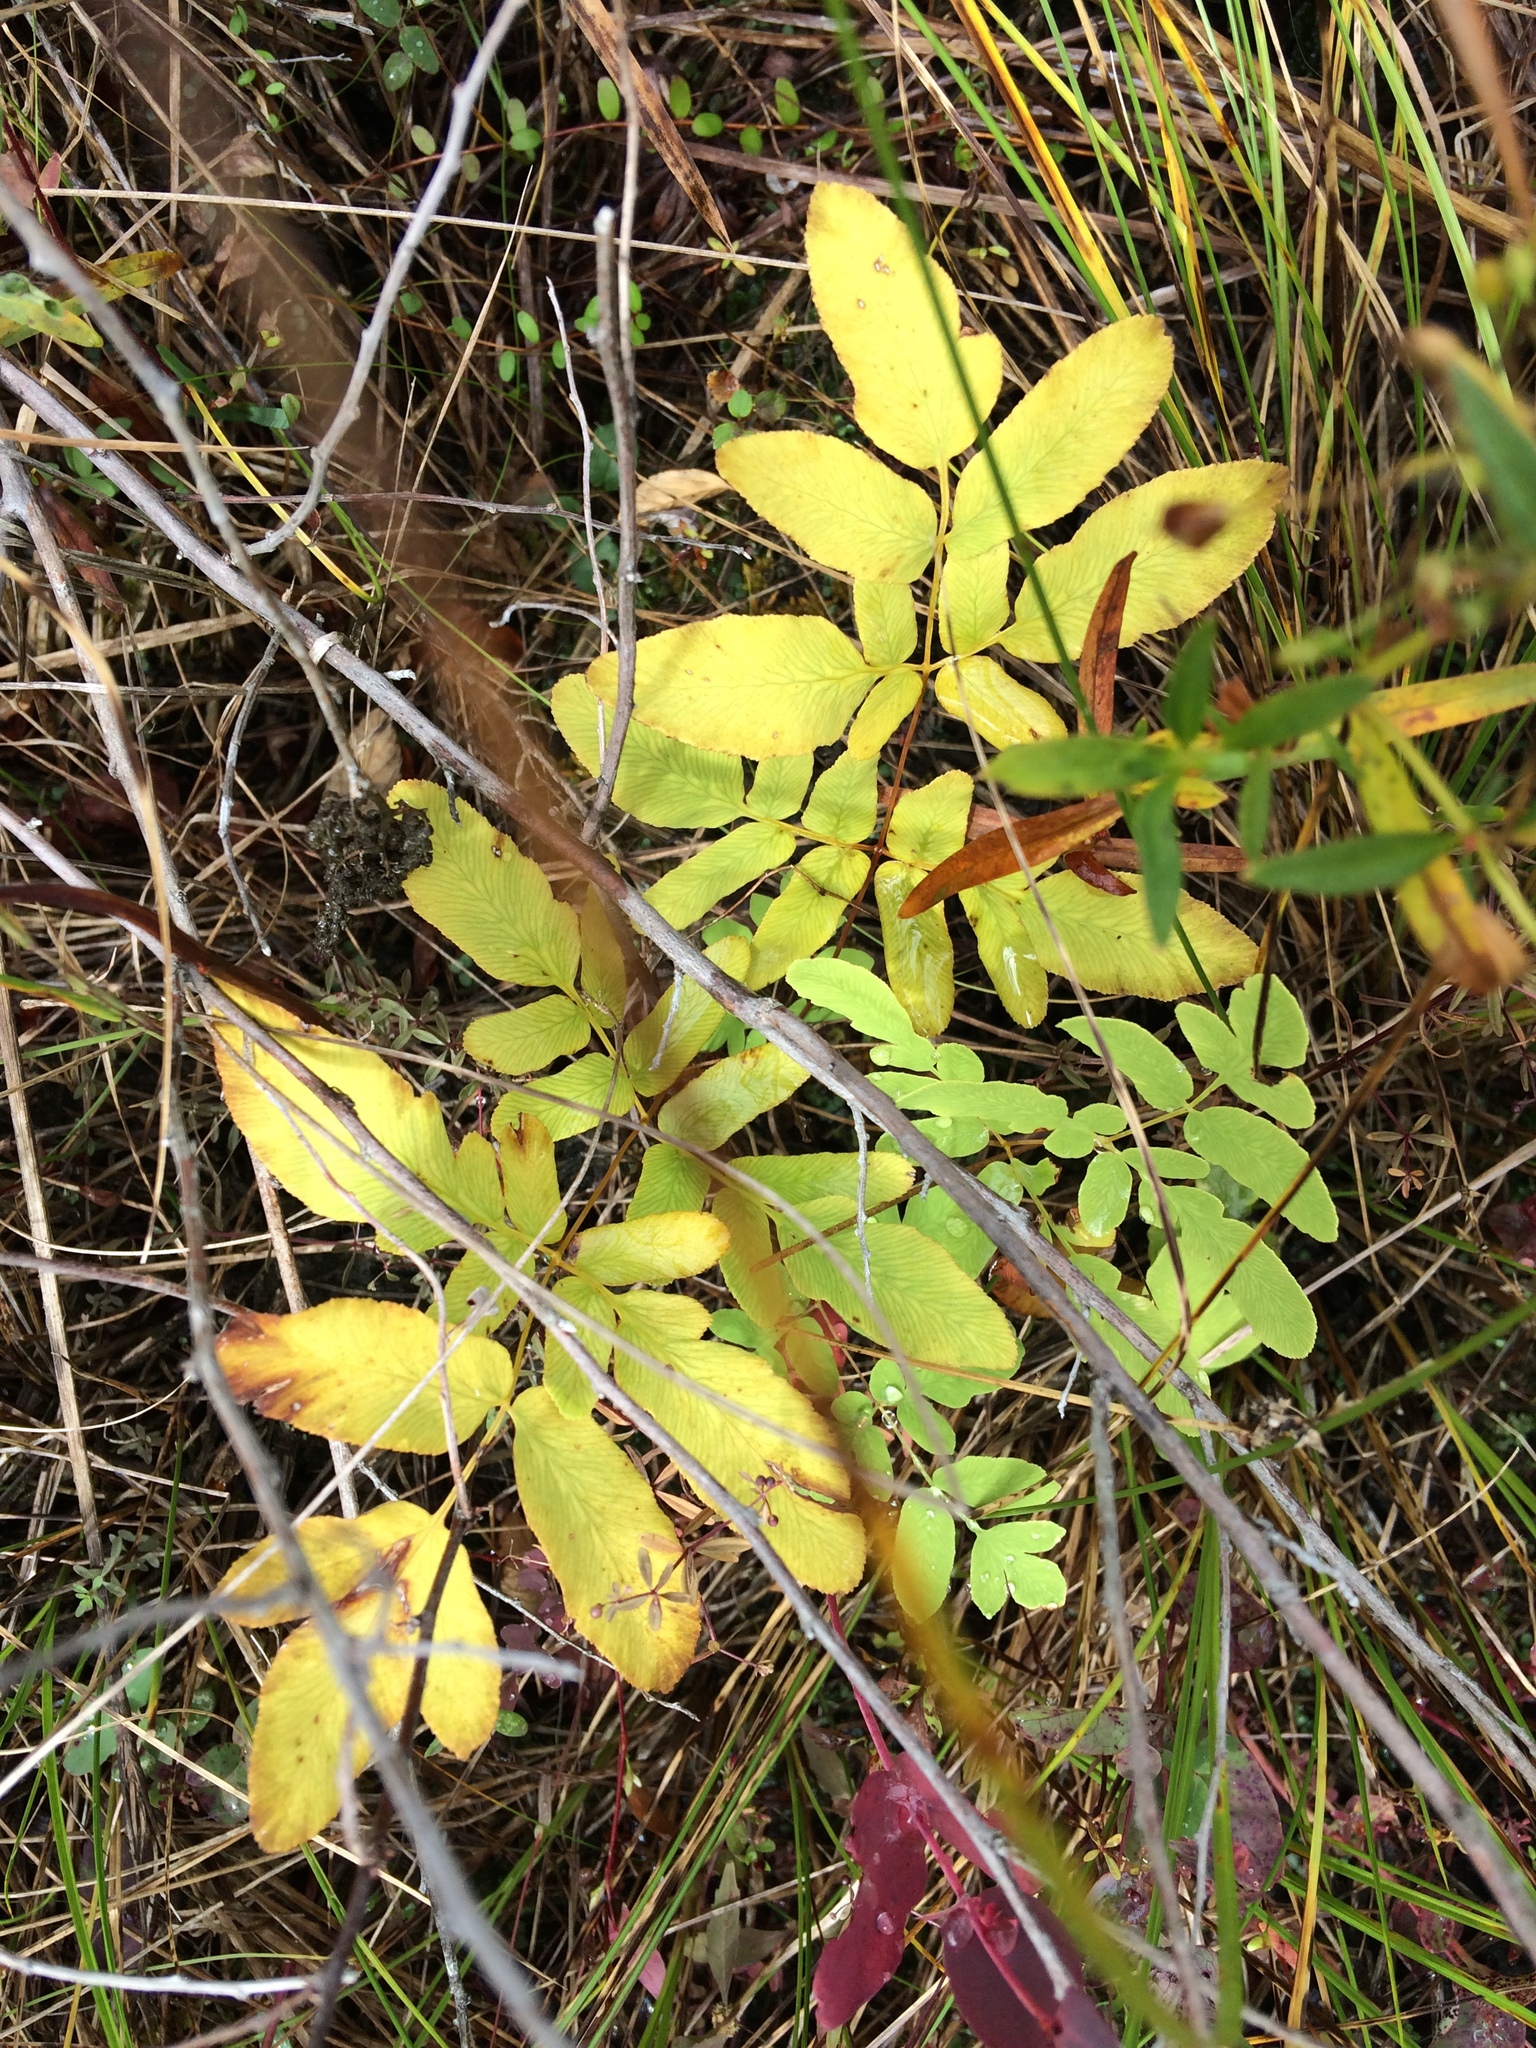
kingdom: Plantae
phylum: Tracheophyta
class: Polypodiopsida
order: Osmundales
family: Osmundaceae
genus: Osmunda
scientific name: Osmunda spectabilis
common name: American royal fern
